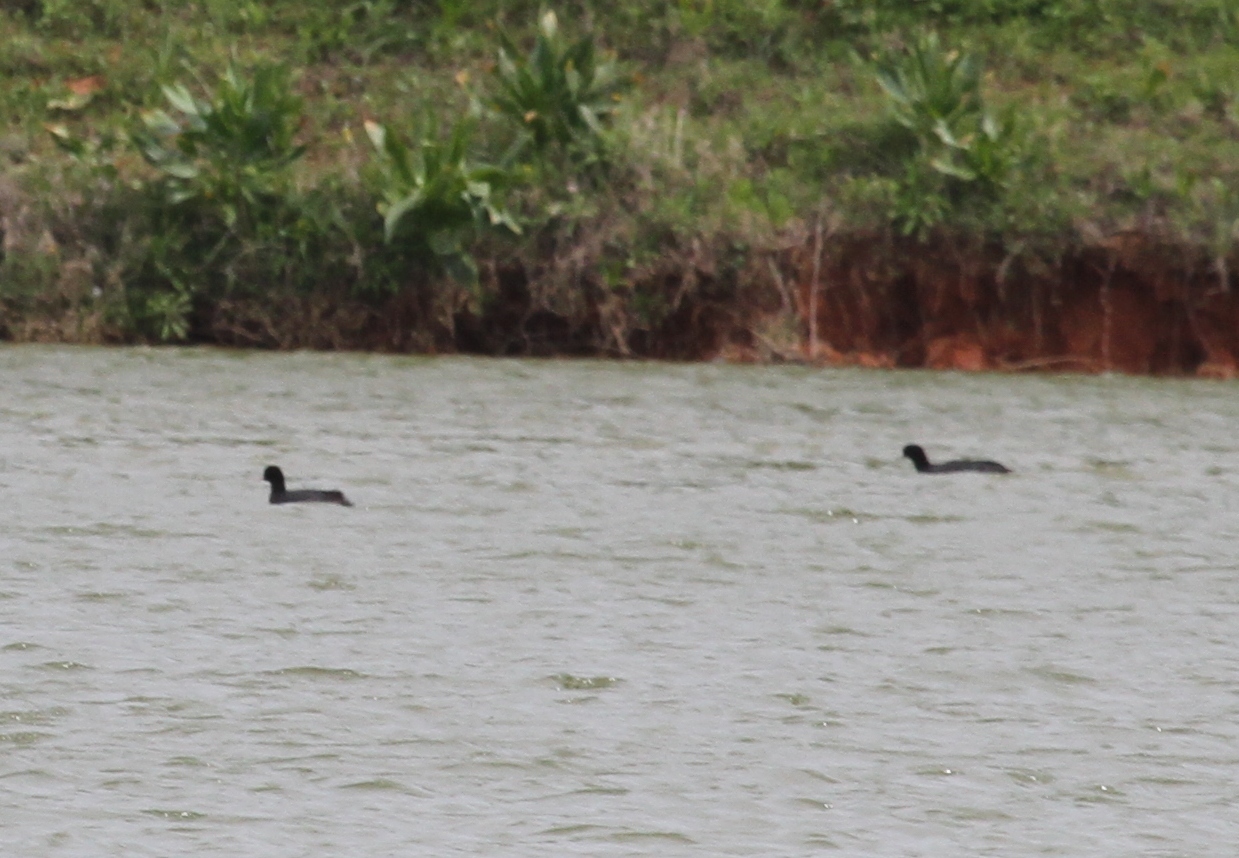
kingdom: Animalia
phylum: Chordata
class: Aves
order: Gruiformes
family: Rallidae
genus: Fulica
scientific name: Fulica atra
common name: Eurasian coot
